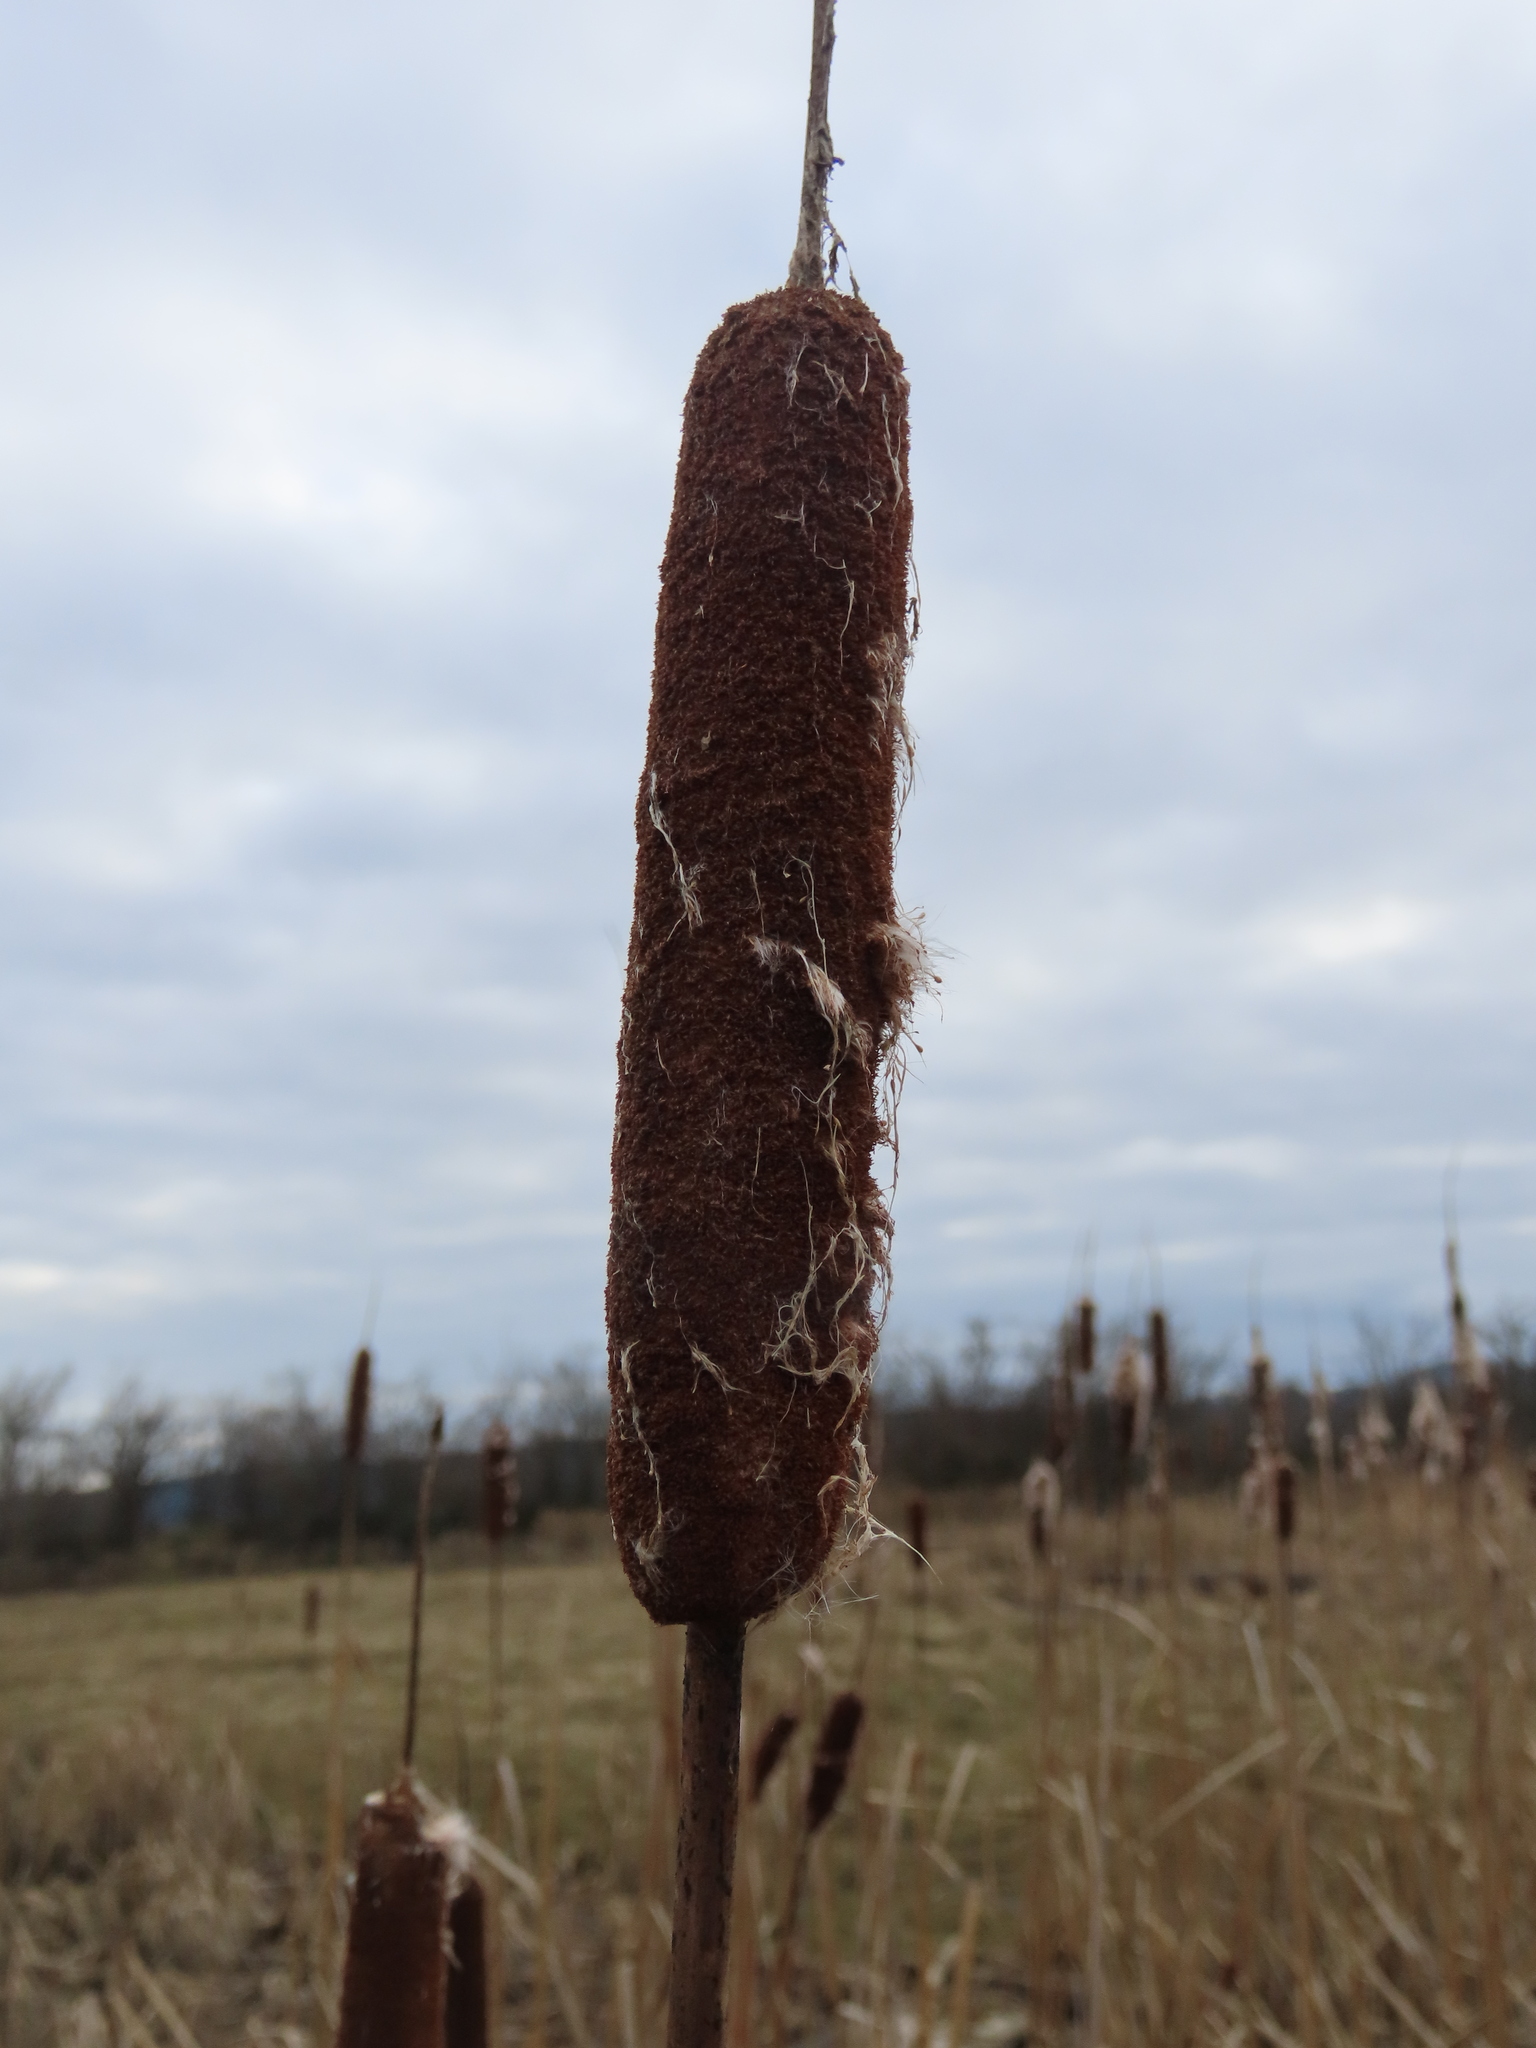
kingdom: Plantae
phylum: Tracheophyta
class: Liliopsida
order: Poales
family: Typhaceae
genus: Typha
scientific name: Typha latifolia
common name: Broadleaf cattail
